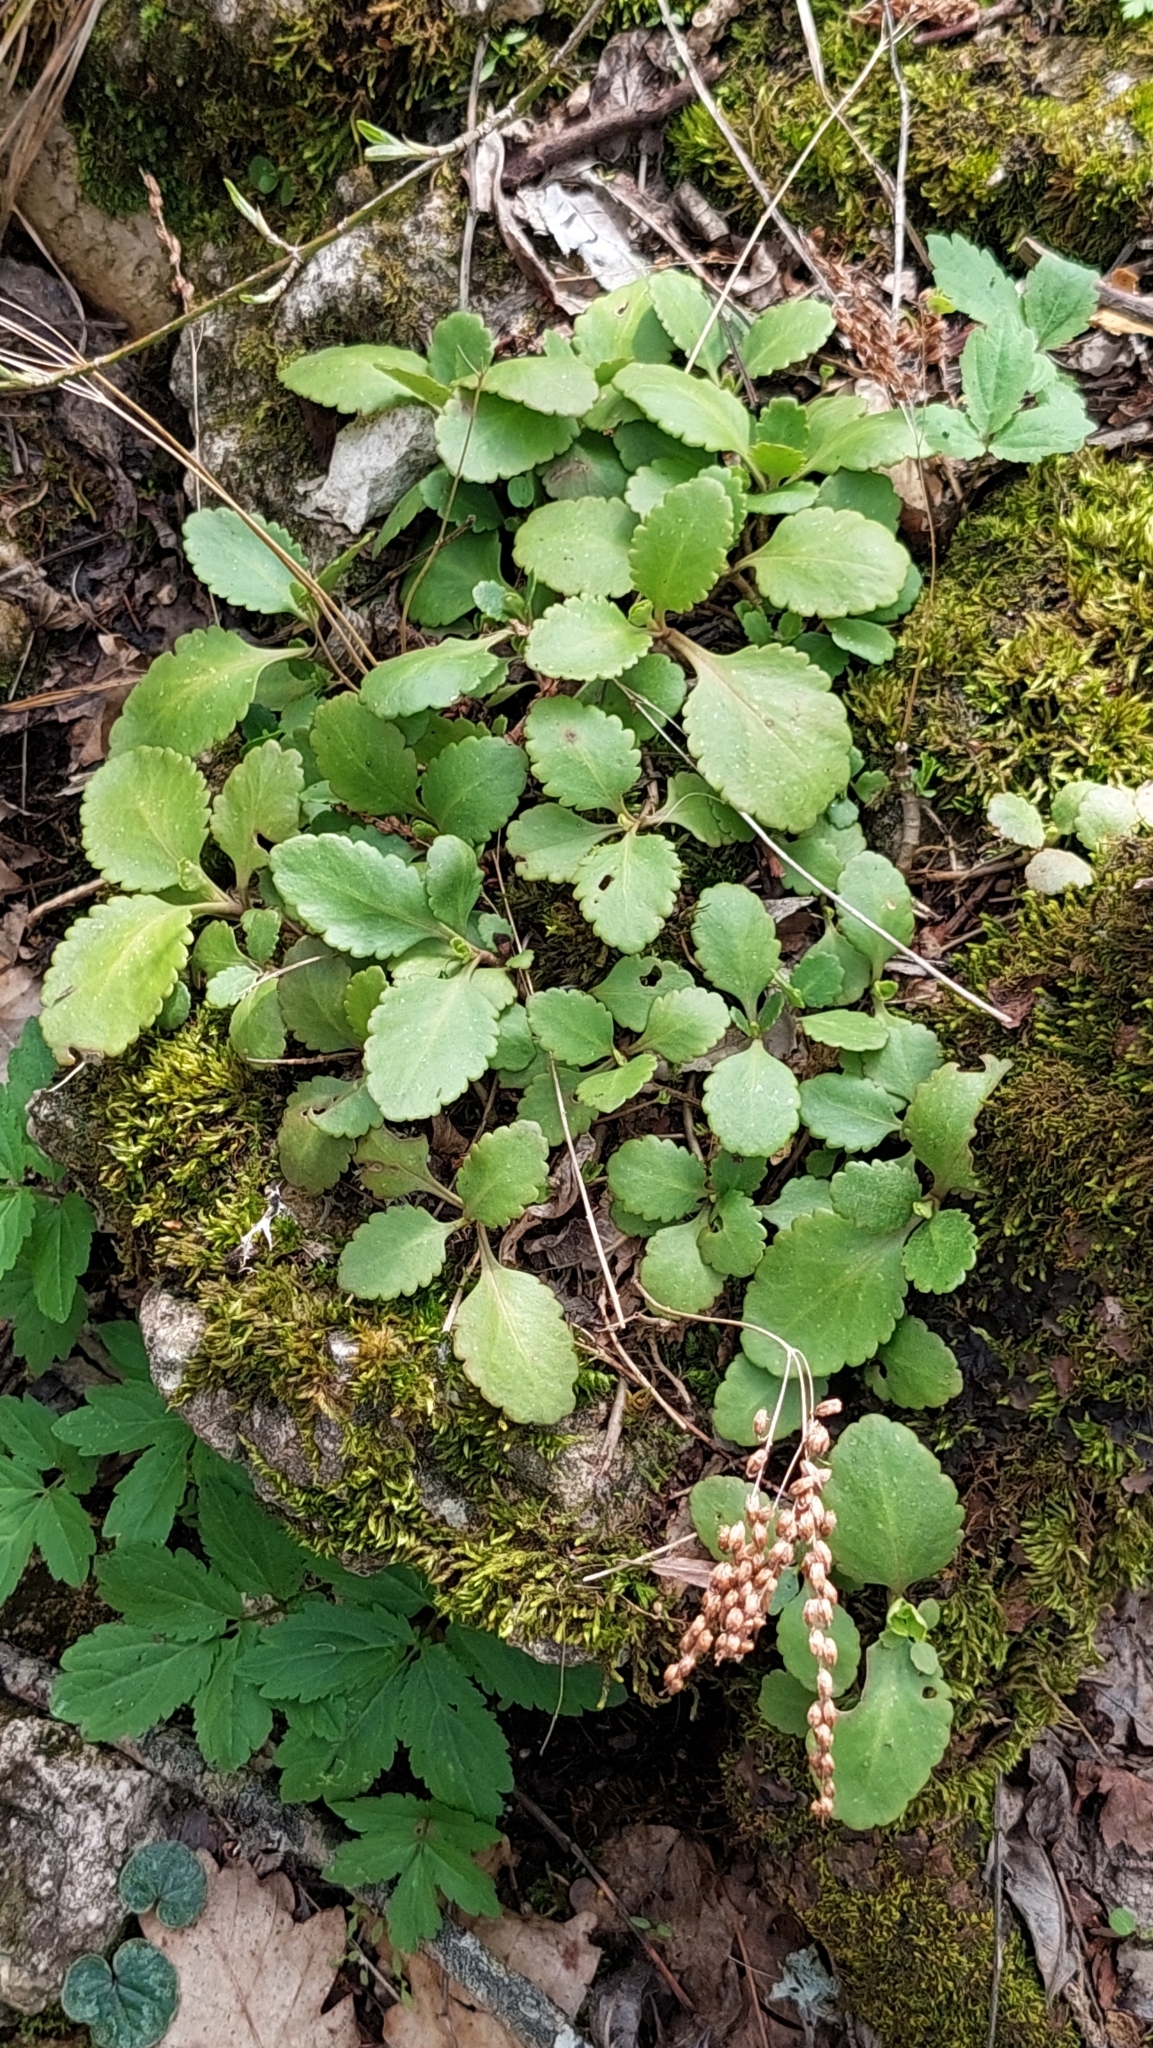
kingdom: Plantae
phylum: Tracheophyta
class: Magnoliopsida
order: Saxifragales
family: Crassulaceae
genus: Umbilicus
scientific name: Umbilicus oppositifolius
